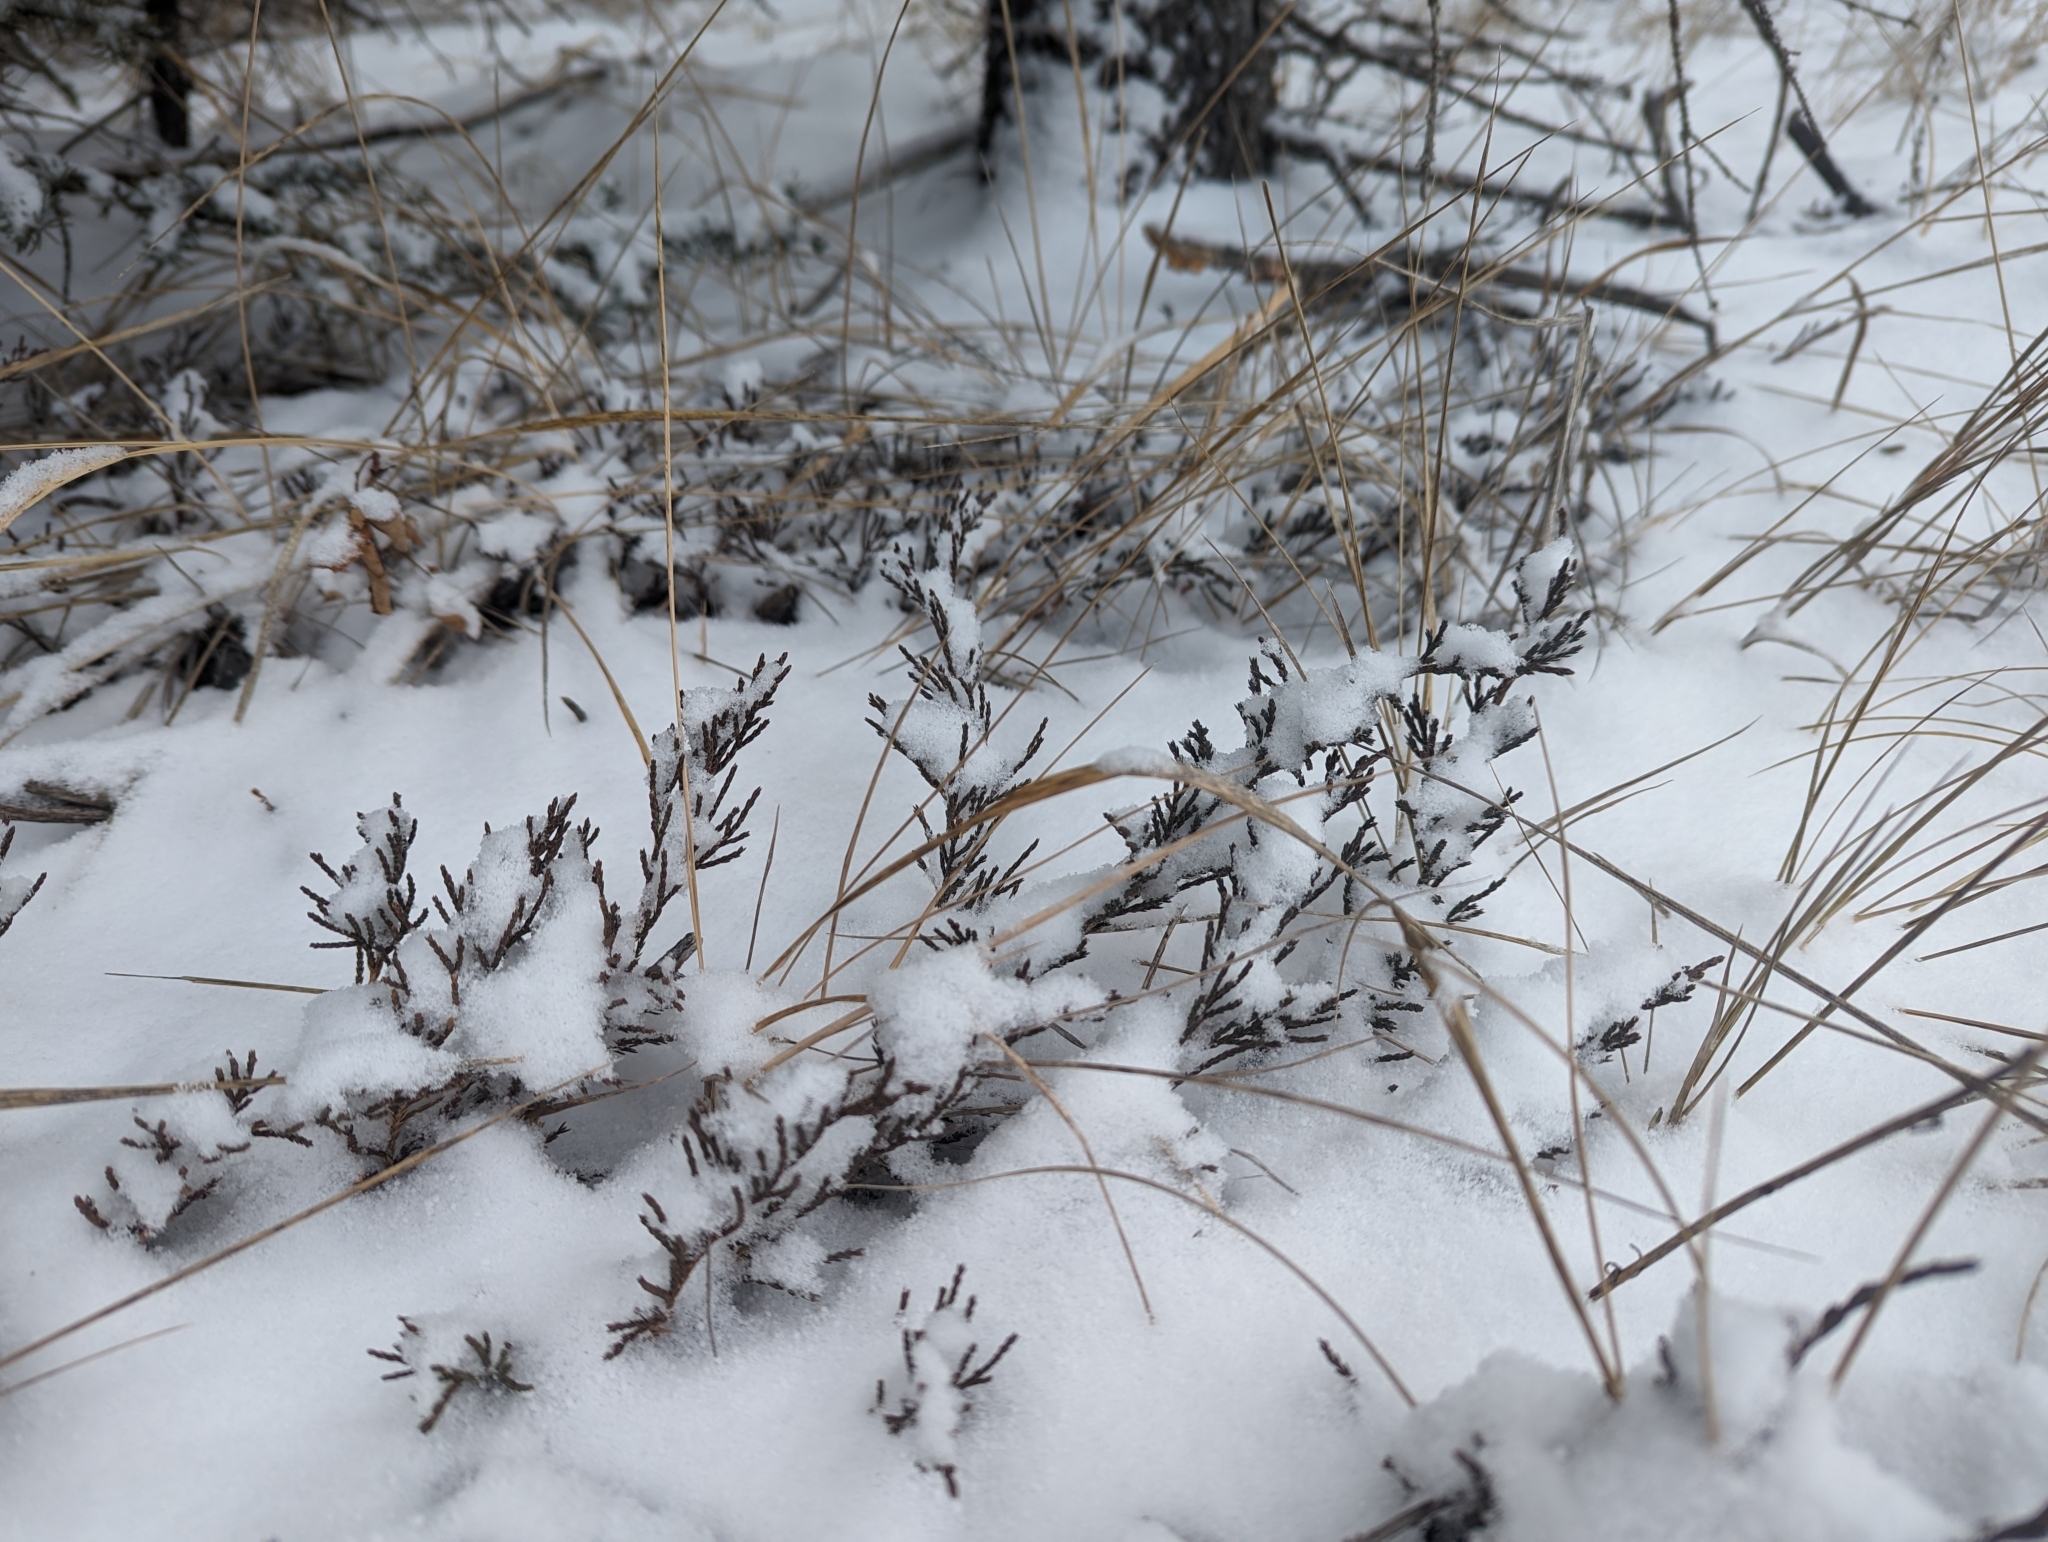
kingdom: Plantae
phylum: Tracheophyta
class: Pinopsida
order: Pinales
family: Cupressaceae
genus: Juniperus
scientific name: Juniperus horizontalis
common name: Creeping juniper
